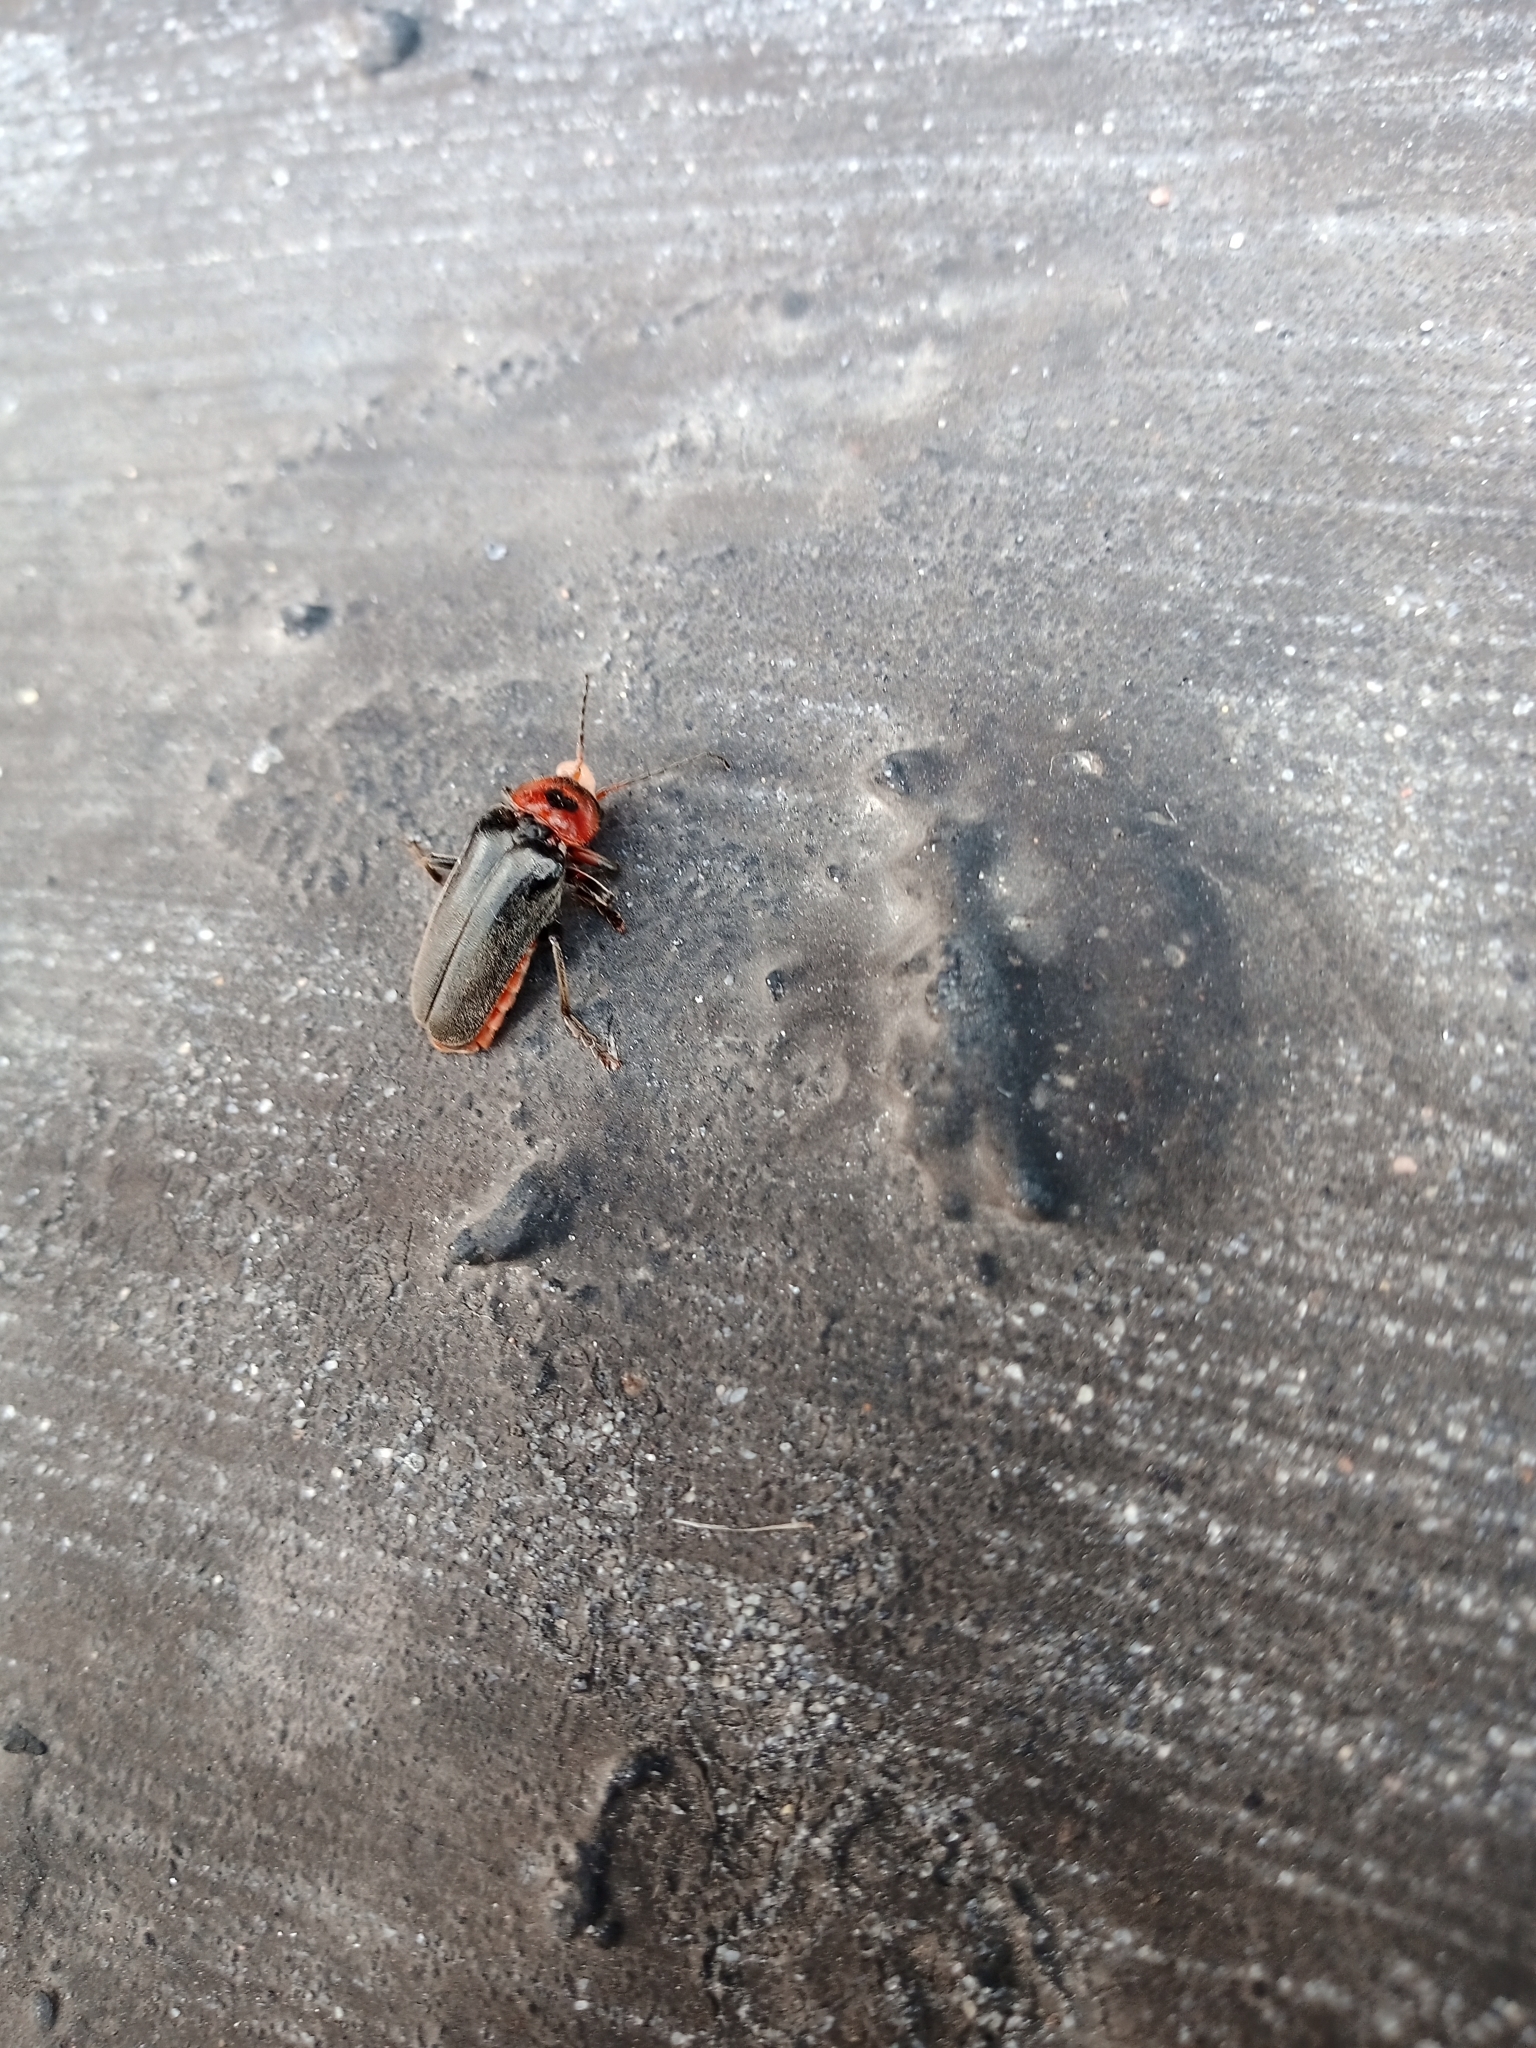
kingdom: Animalia
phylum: Arthropoda
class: Insecta
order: Coleoptera
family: Cantharidae
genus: Cantharis
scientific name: Cantharis rustica
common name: Soldier beetle
